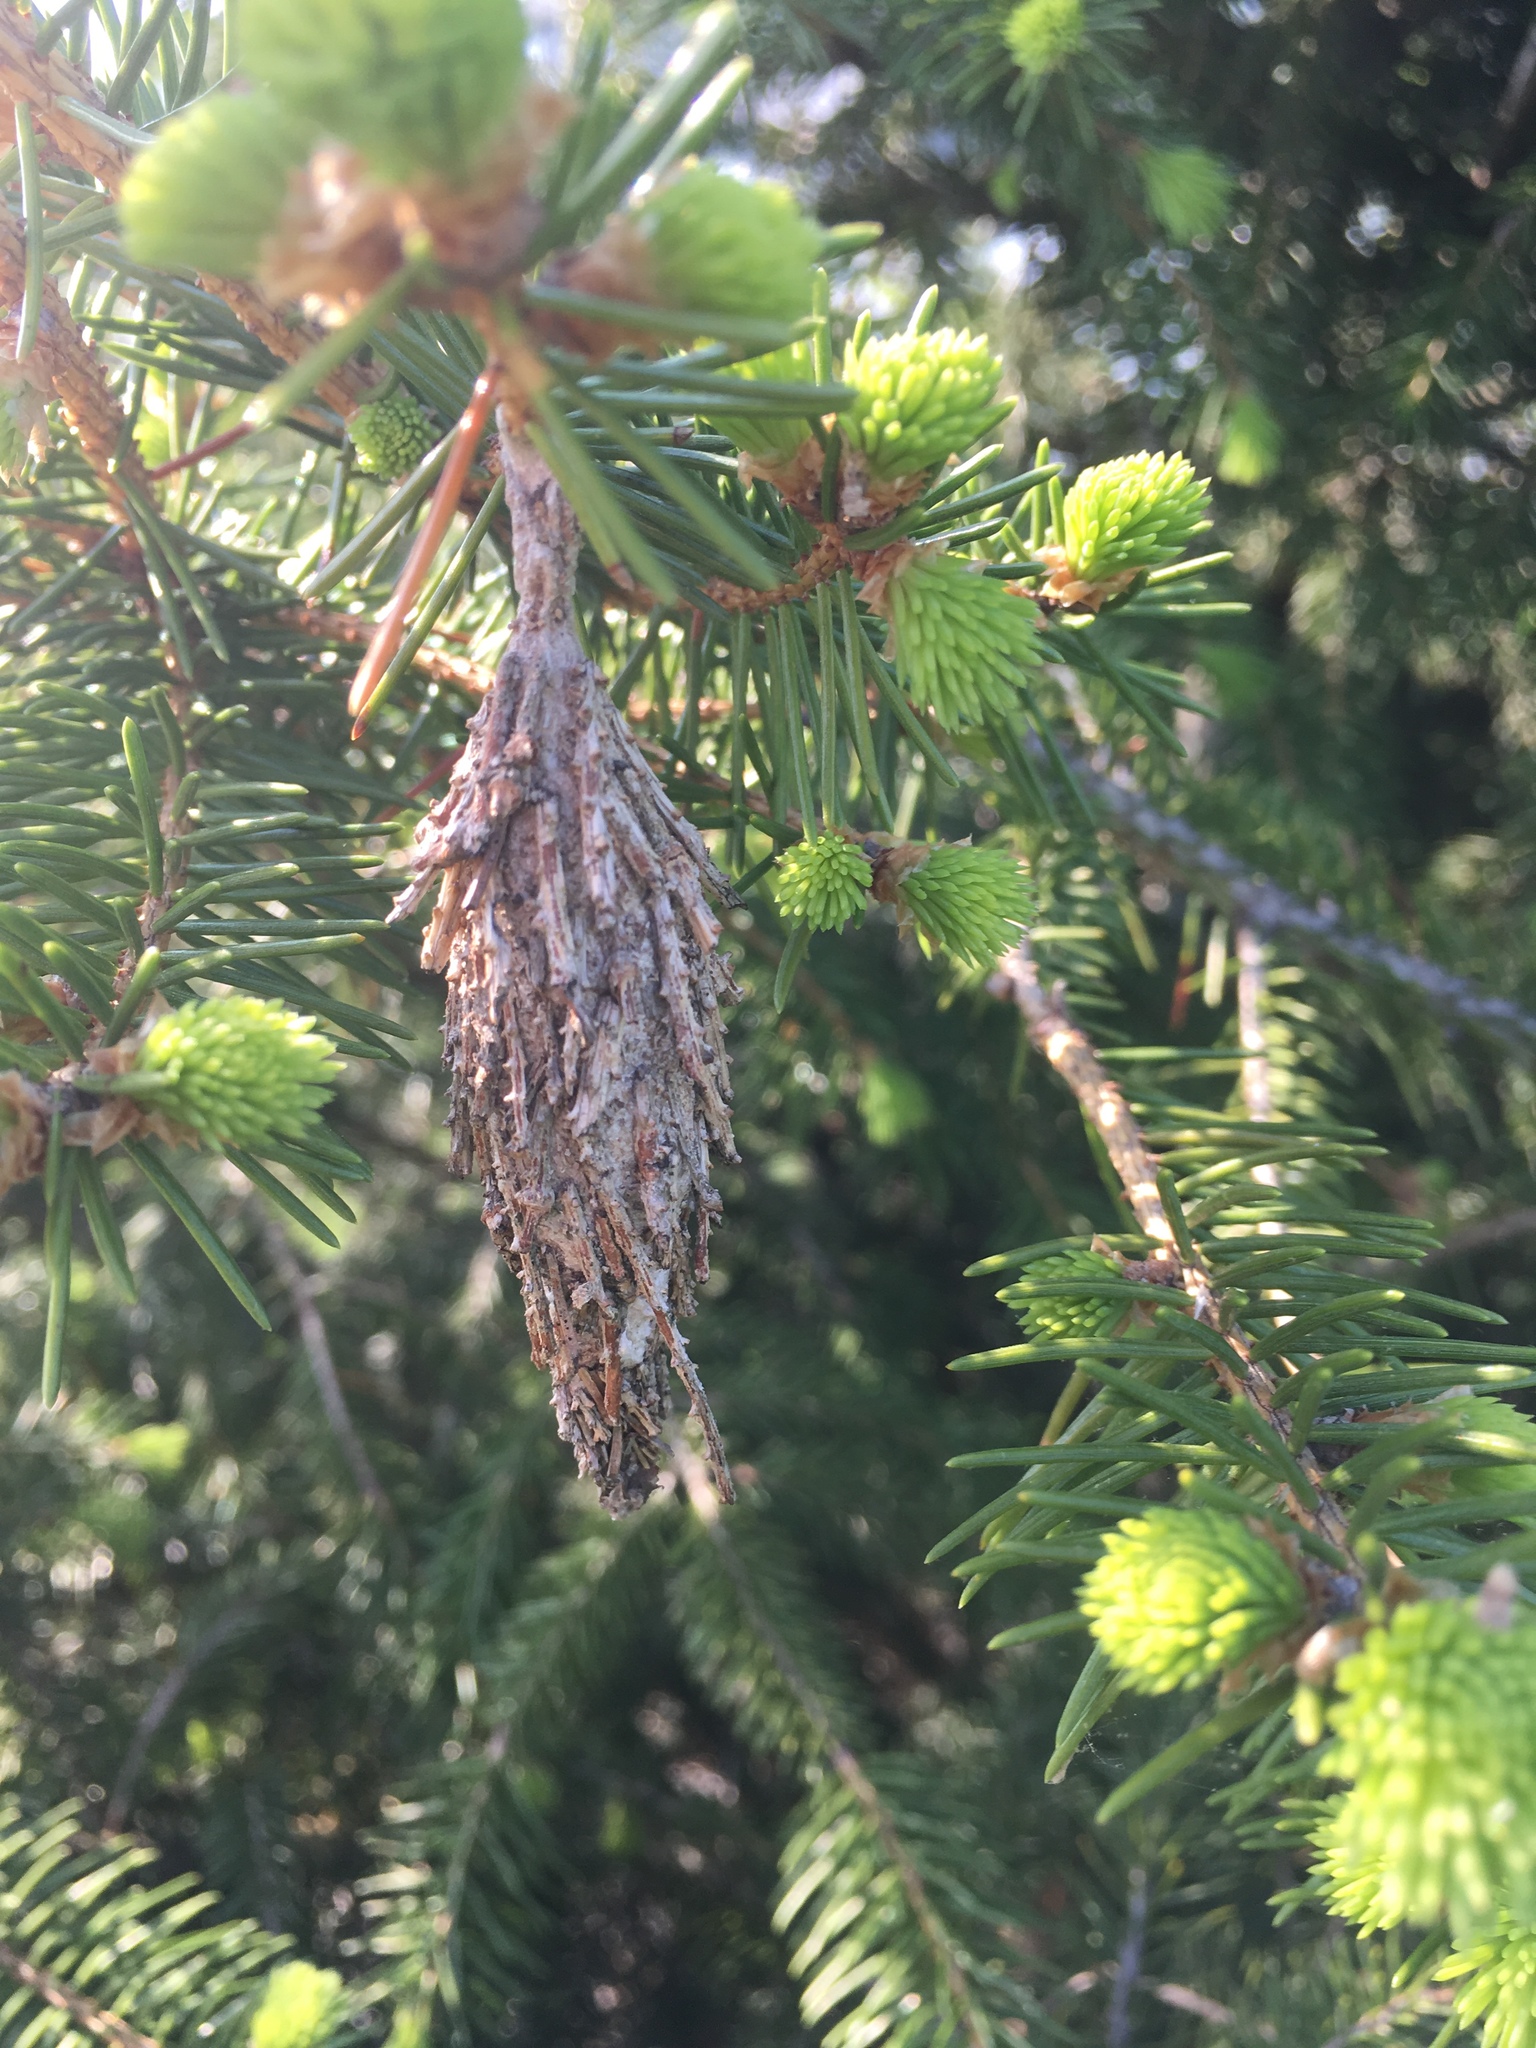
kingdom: Animalia
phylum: Arthropoda
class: Insecta
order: Lepidoptera
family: Psychidae
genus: Thyridopteryx
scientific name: Thyridopteryx ephemeraeformis
